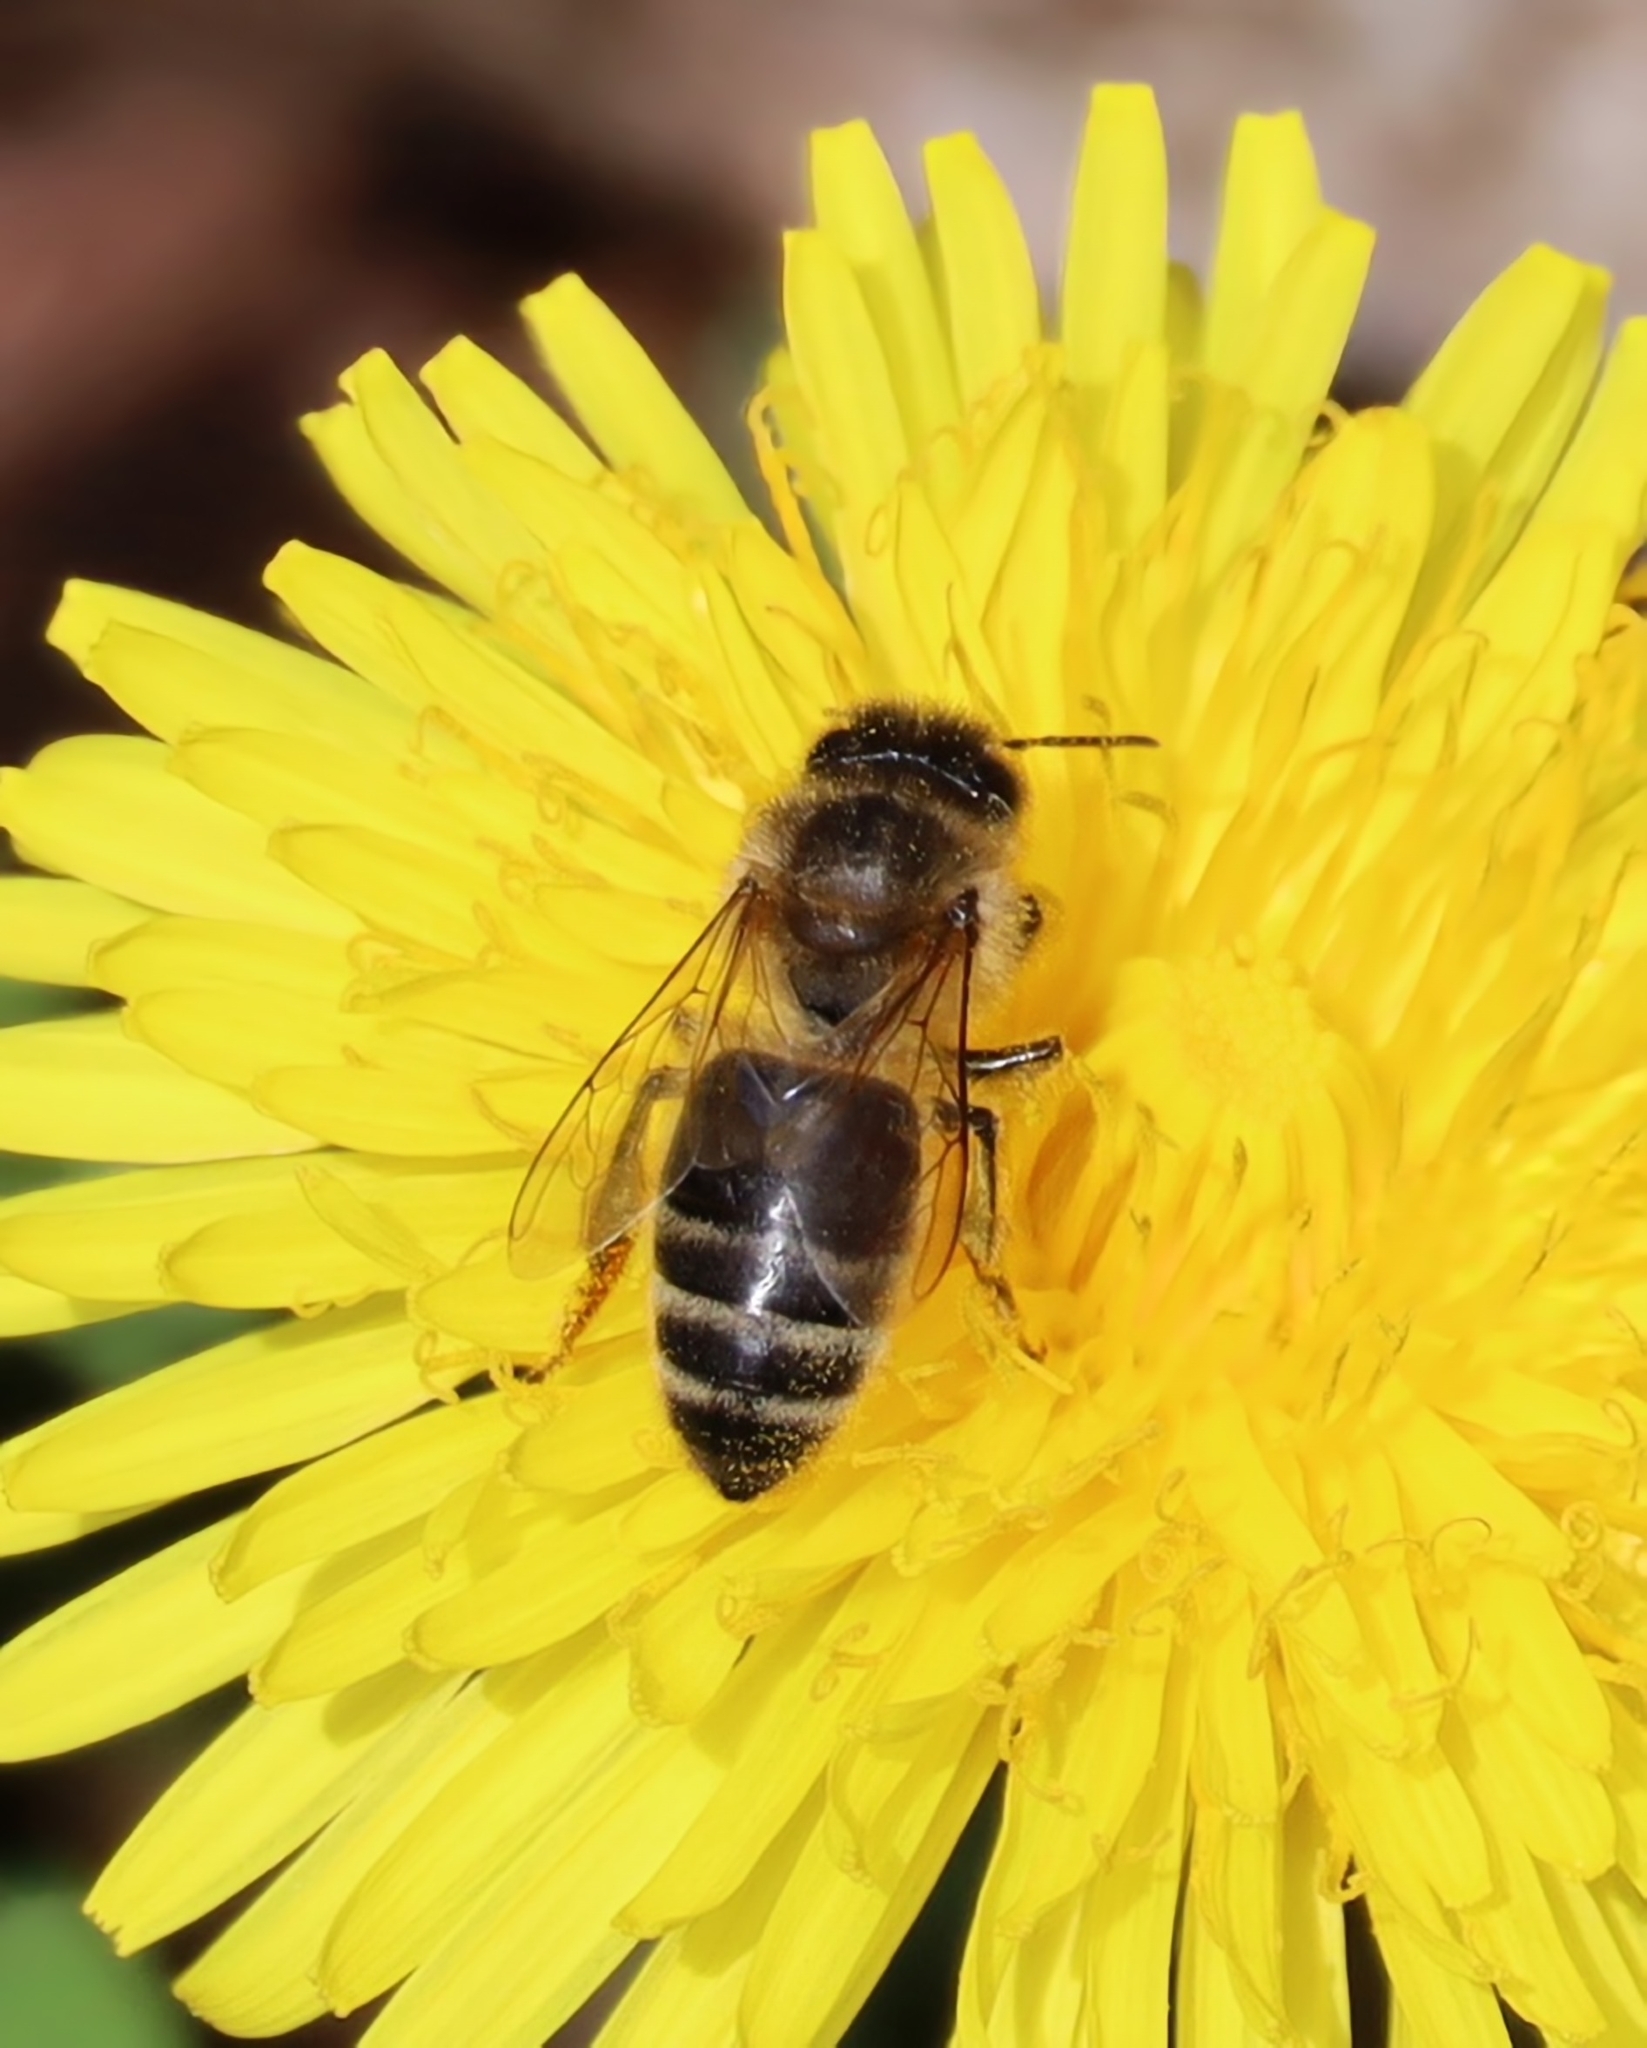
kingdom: Animalia
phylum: Arthropoda
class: Insecta
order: Hymenoptera
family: Apidae
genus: Apis
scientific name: Apis mellifera
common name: Honey bee
